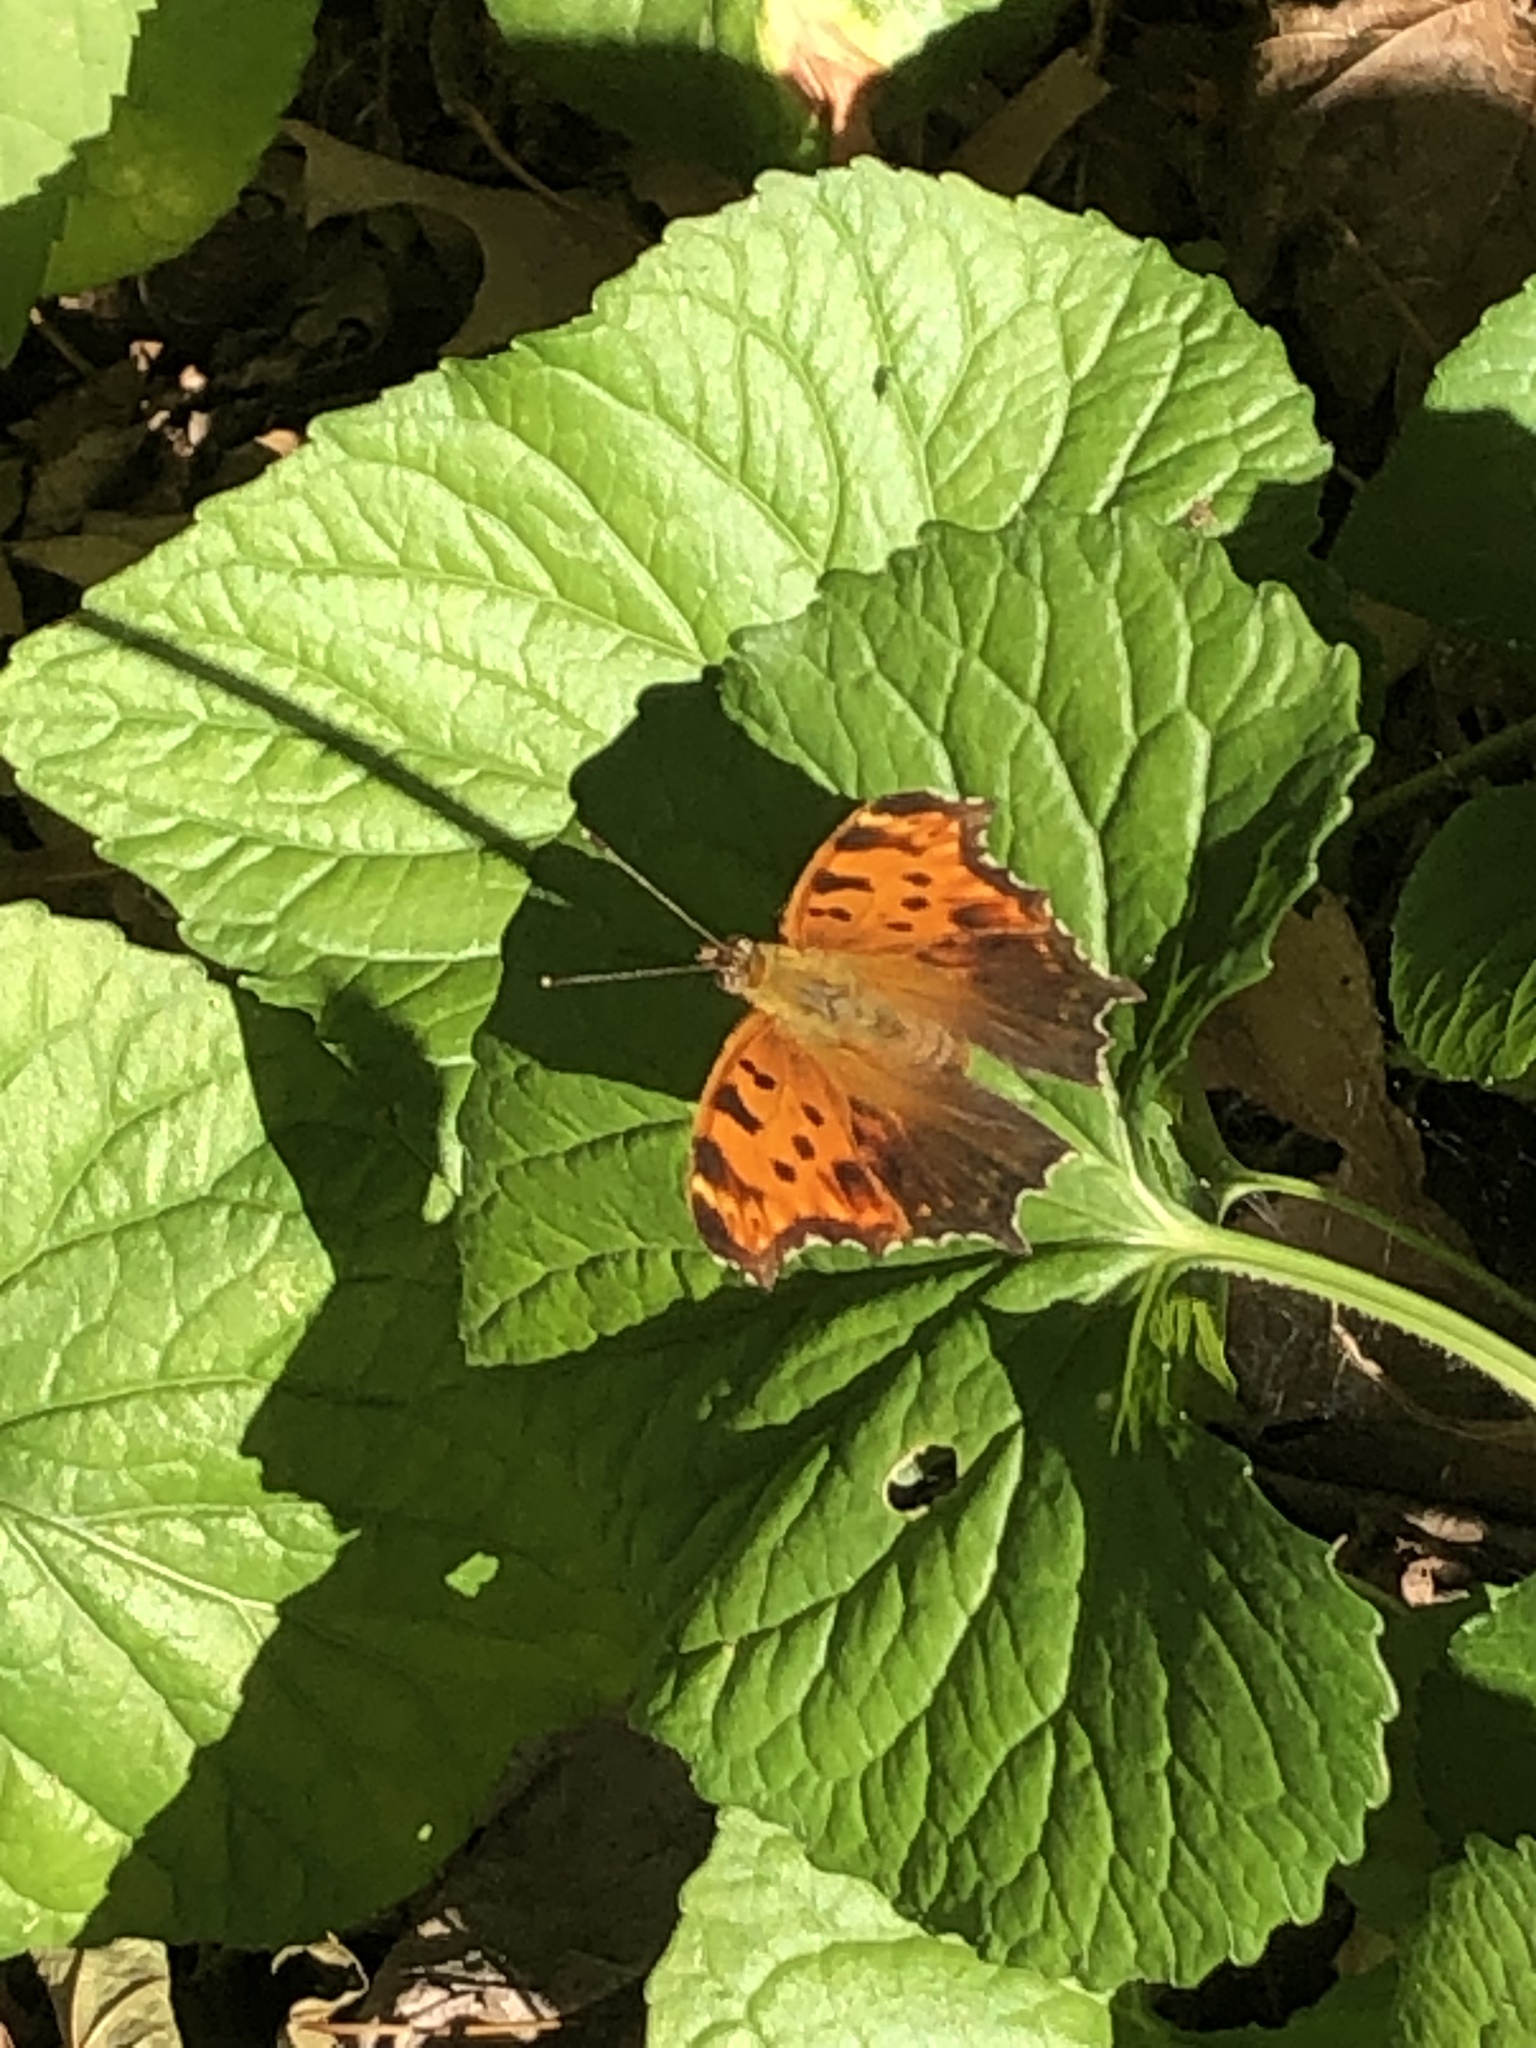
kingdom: Animalia
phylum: Arthropoda
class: Insecta
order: Lepidoptera
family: Nymphalidae
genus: Polygonia
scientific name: Polygonia comma
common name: Eastern comma
